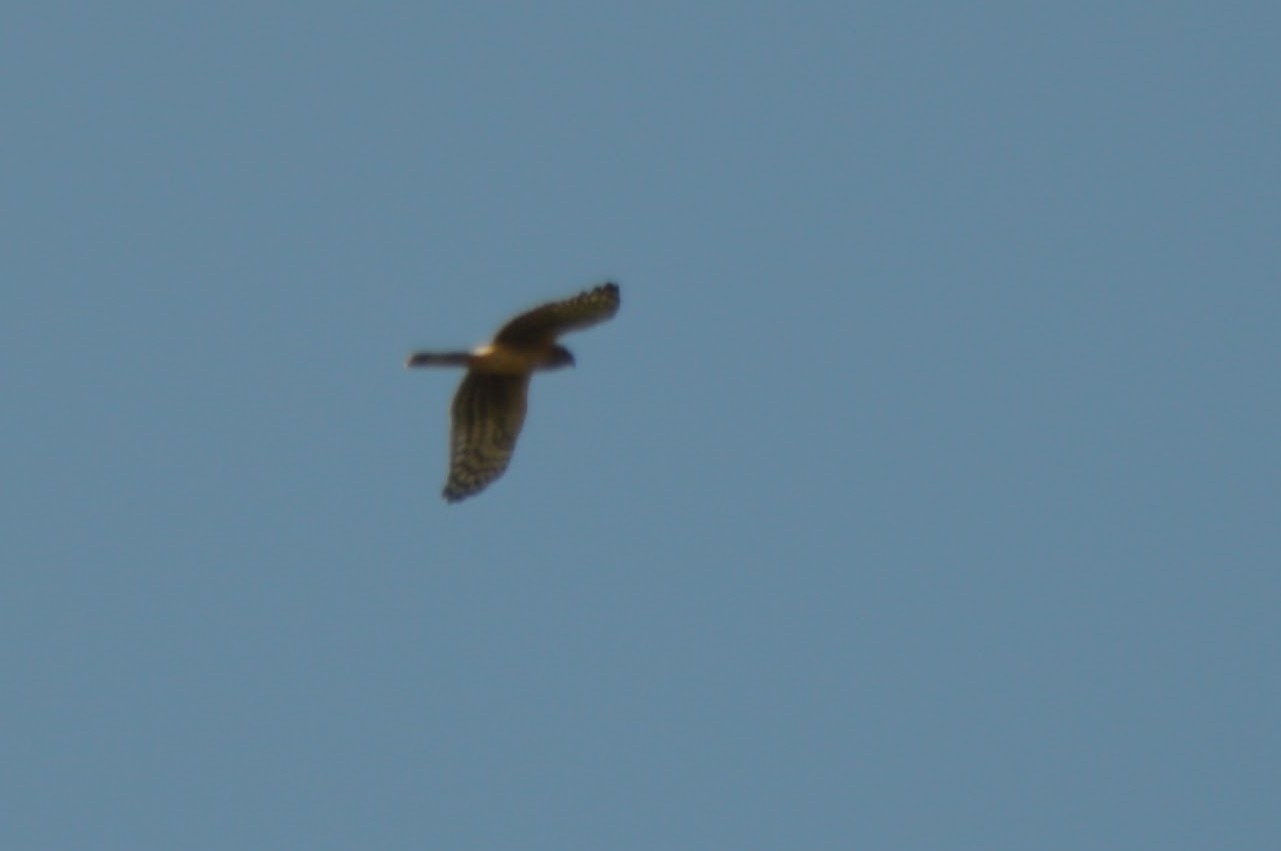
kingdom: Animalia
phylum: Chordata
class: Aves
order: Accipitriformes
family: Accipitridae
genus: Circus
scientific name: Circus cyaneus
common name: Hen harrier
